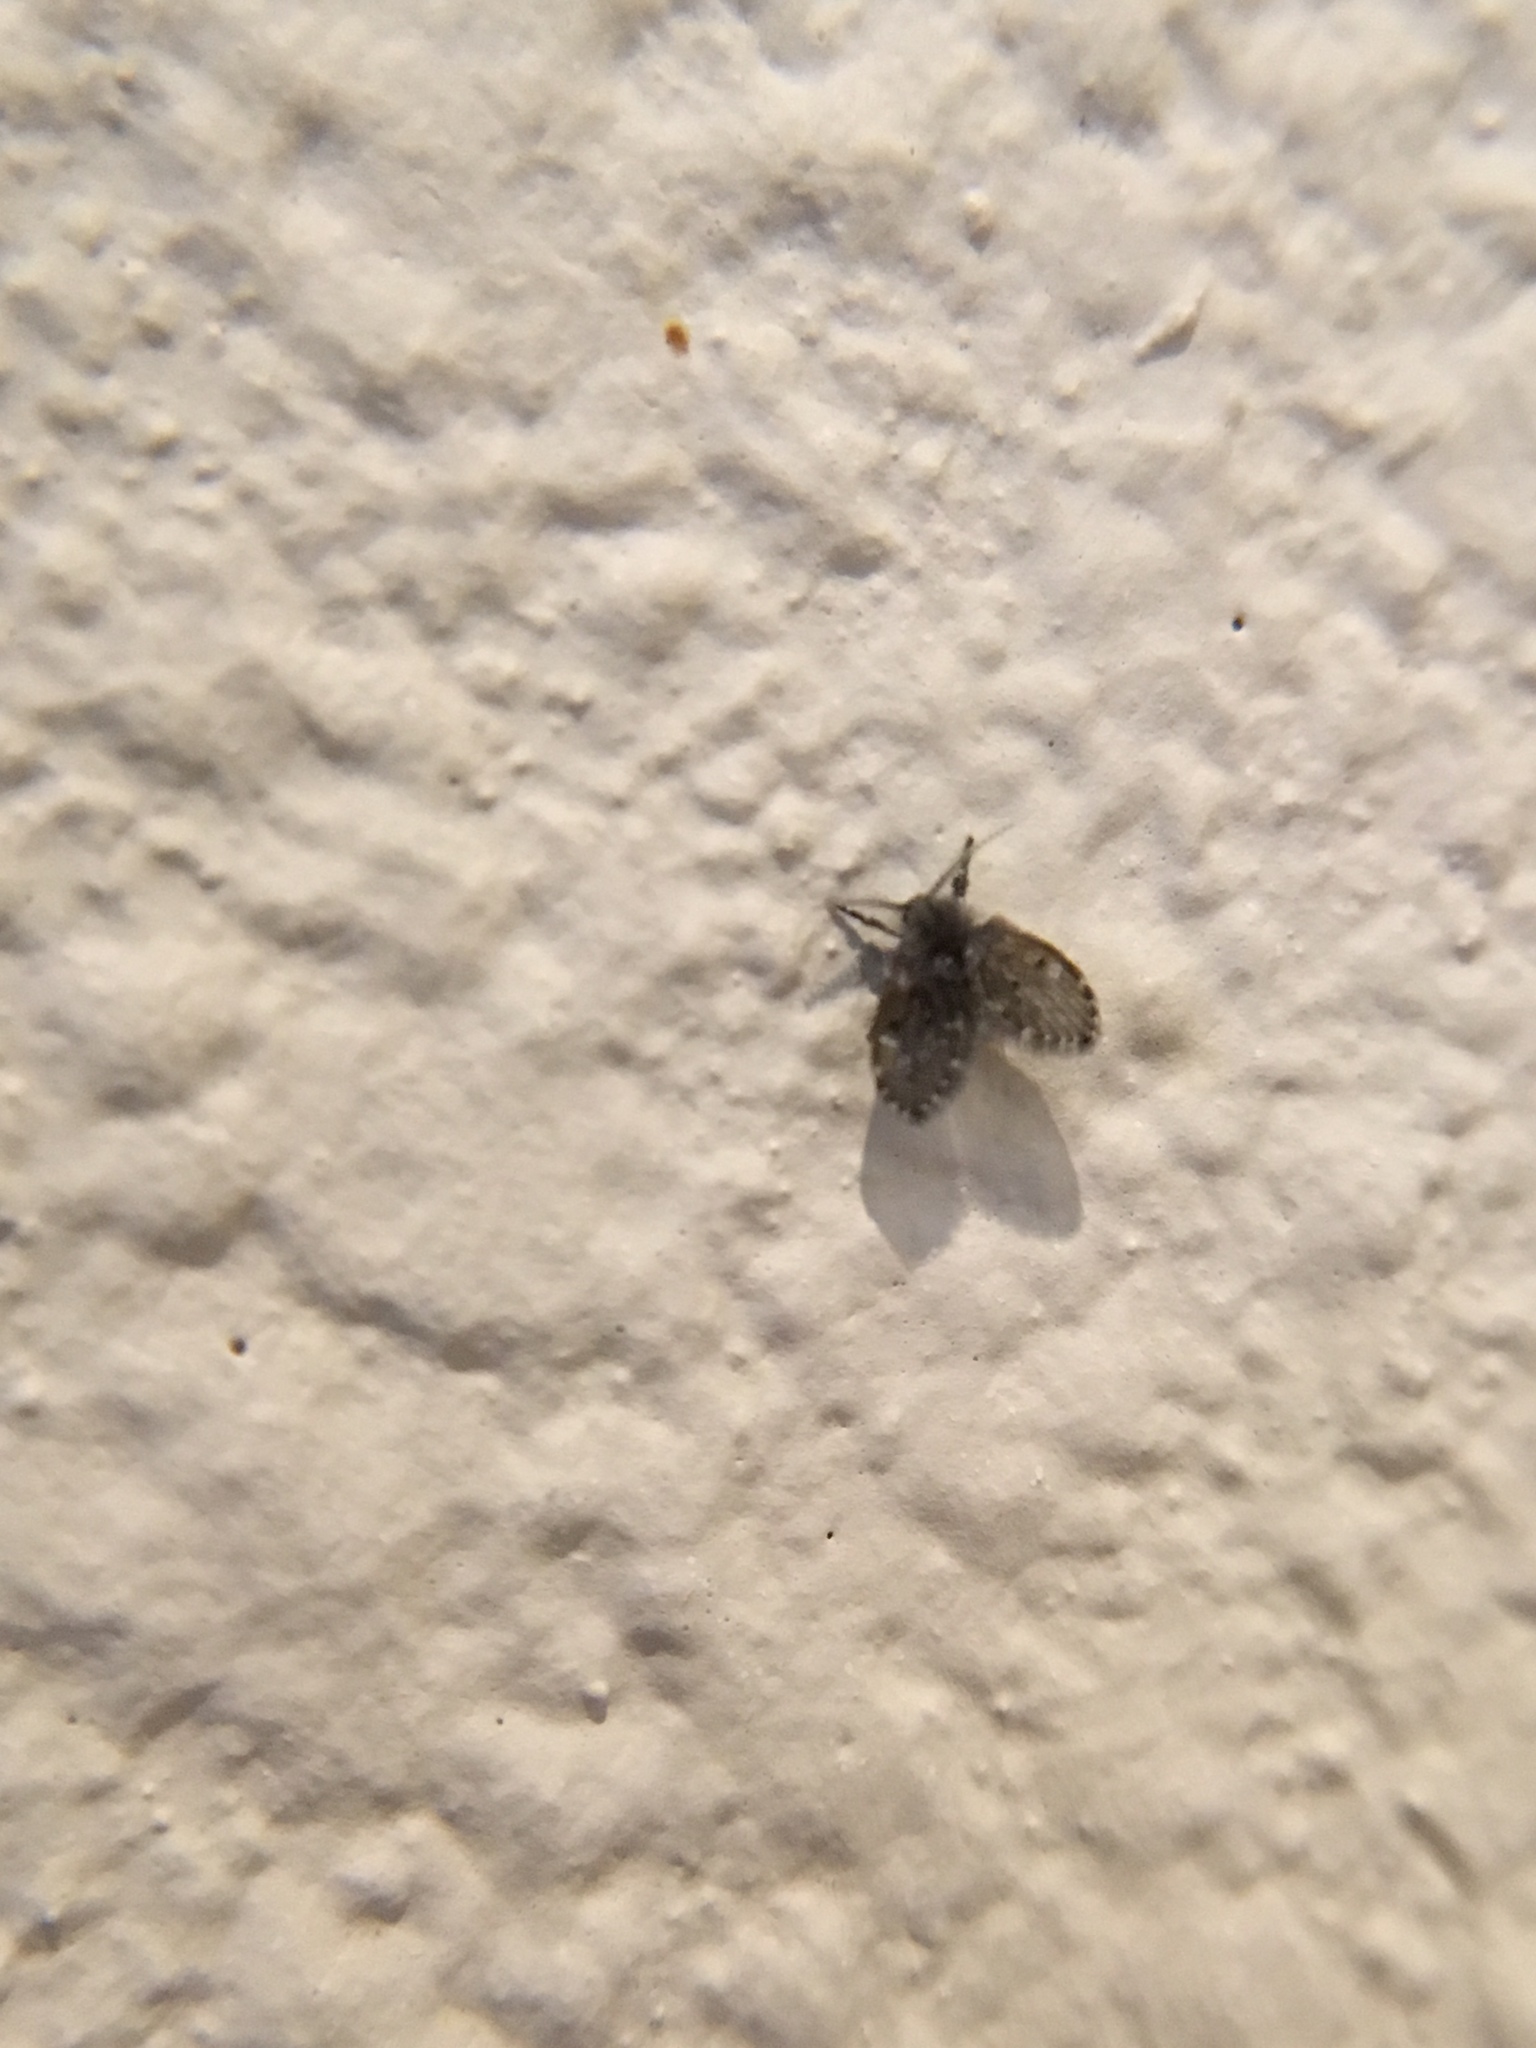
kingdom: Animalia
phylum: Arthropoda
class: Insecta
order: Diptera
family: Psychodidae
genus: Clogmia
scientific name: Clogmia albipunctatus
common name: White-spotted moth fly
